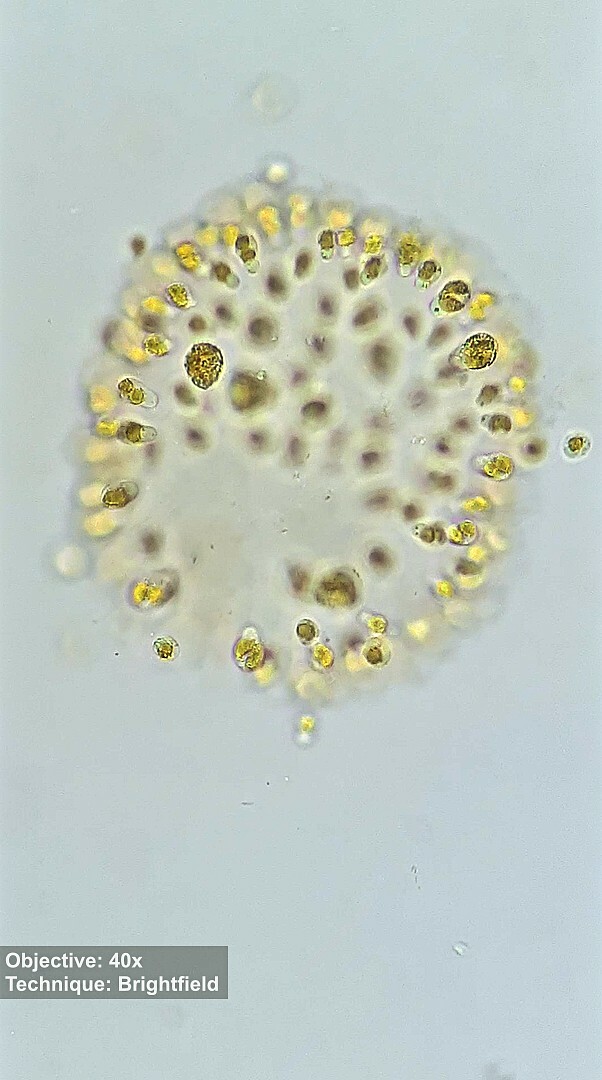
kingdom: Chromista
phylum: Ochrophyta
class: Chrysophyceae
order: Ochromonadales
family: Chromulinaceae
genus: Uroglena
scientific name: Uroglena
